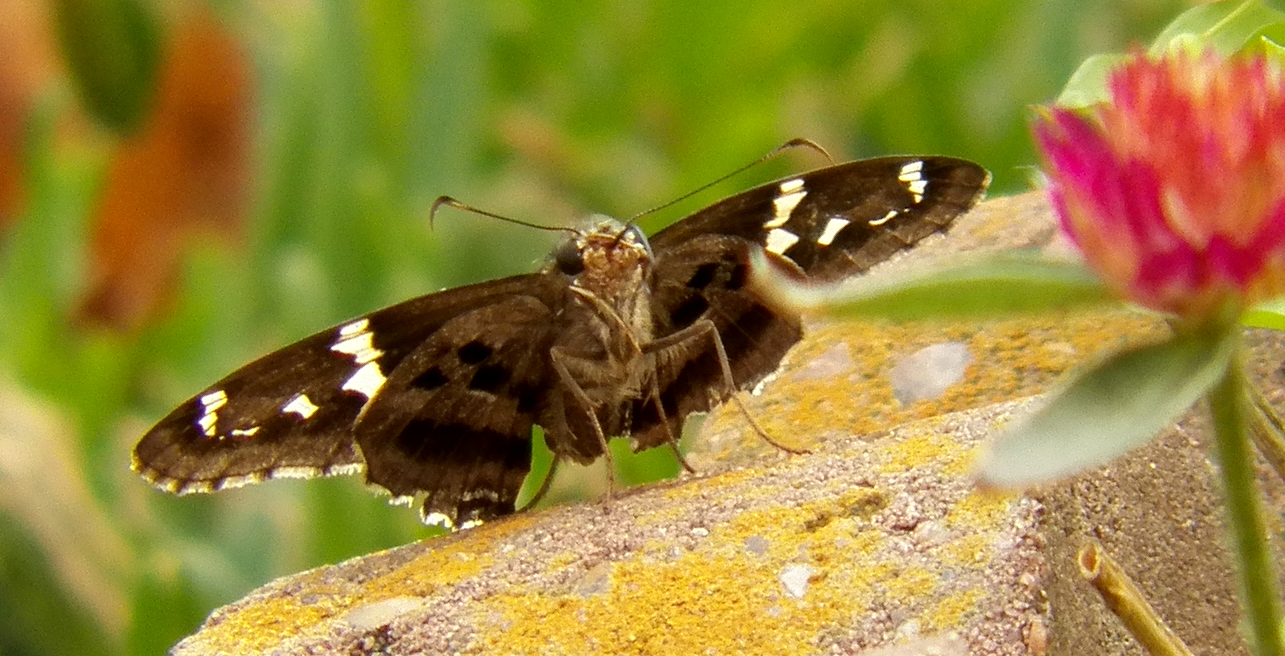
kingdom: Animalia
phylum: Arthropoda
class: Insecta
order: Lepidoptera
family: Hesperiidae
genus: Urbanus
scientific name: Urbanus proteus
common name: Long-tailed skipper
